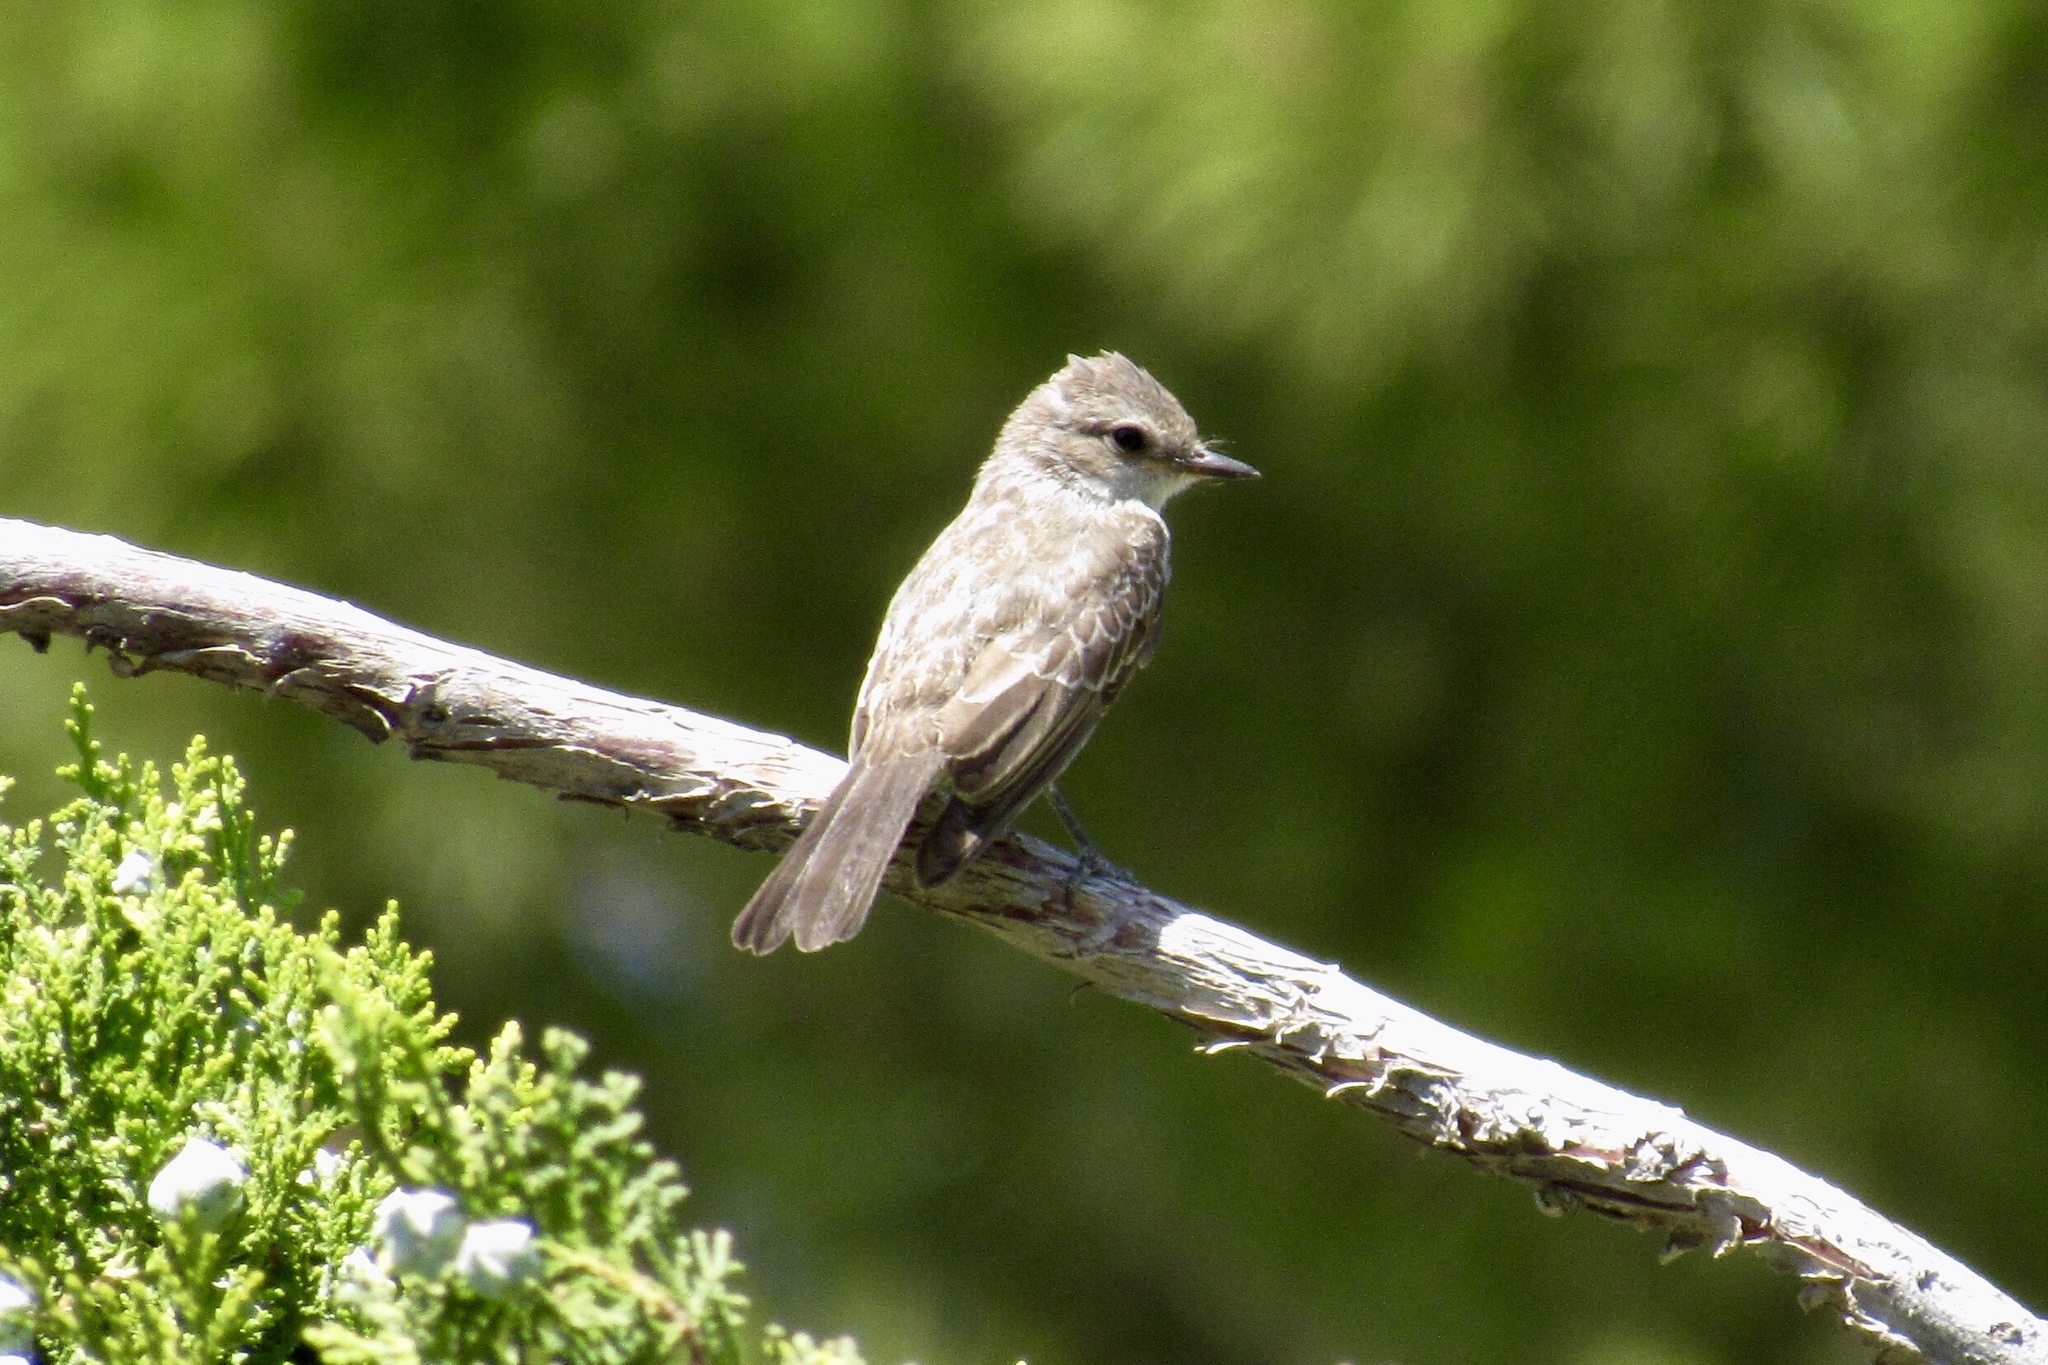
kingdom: Animalia
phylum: Chordata
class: Aves
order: Passeriformes
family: Tyrannidae
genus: Pyrocephalus
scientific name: Pyrocephalus rubinus
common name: Vermilion flycatcher
